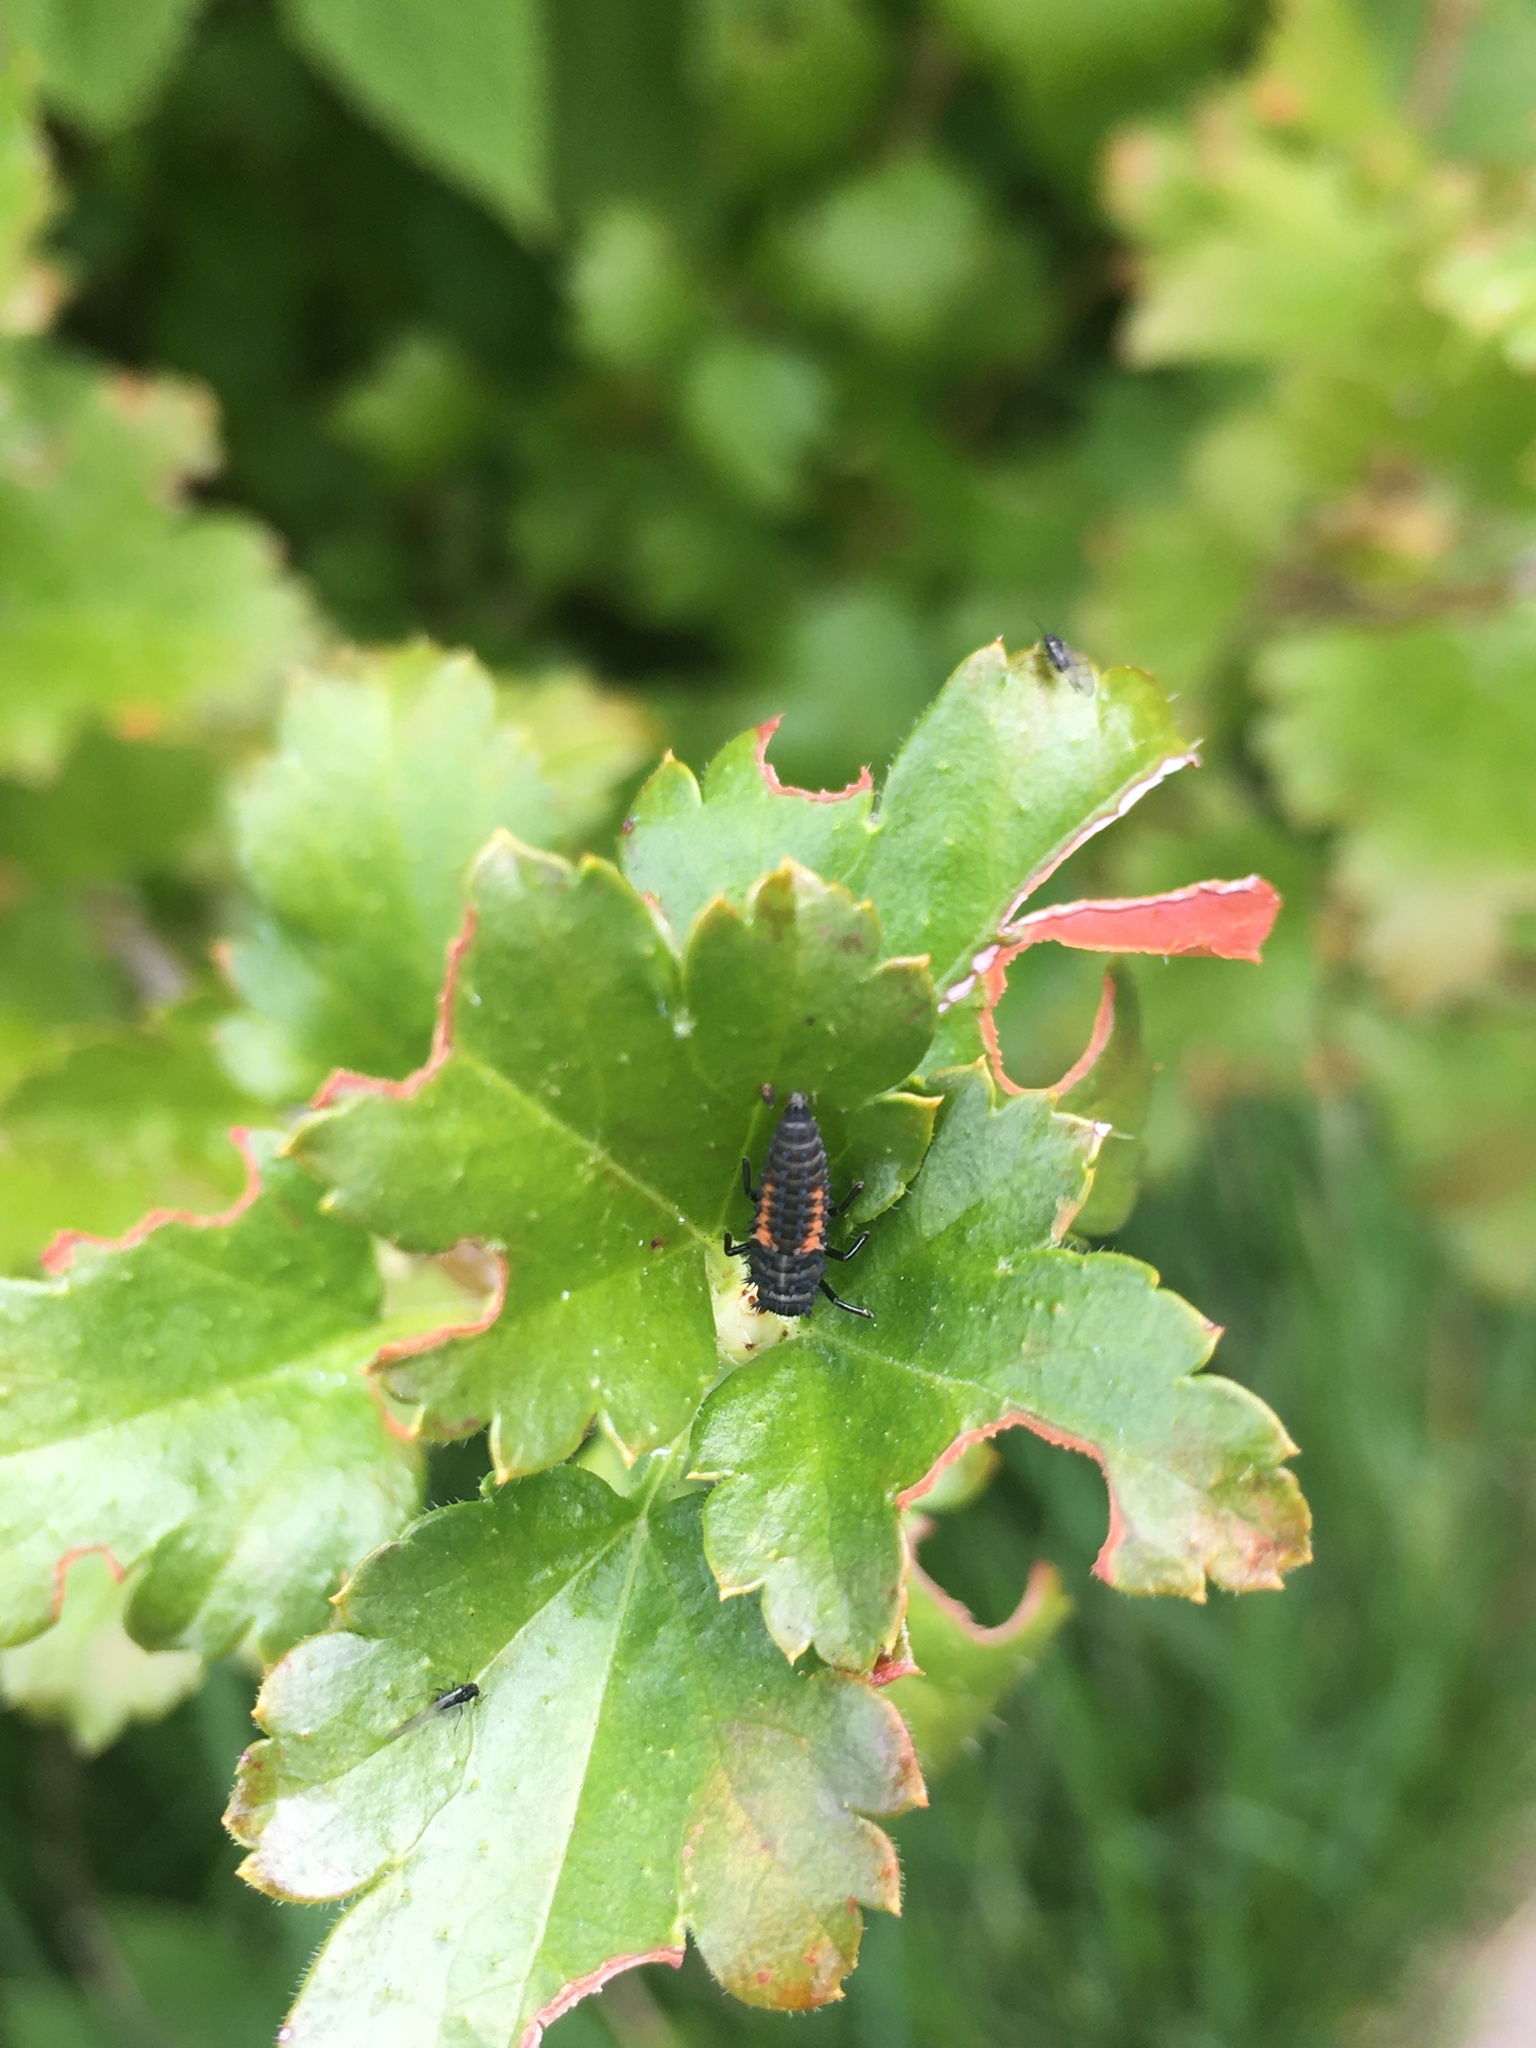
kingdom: Animalia
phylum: Arthropoda
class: Insecta
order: Coleoptera
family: Coccinellidae
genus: Harmonia
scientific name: Harmonia axyridis
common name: Harlequin ladybird
